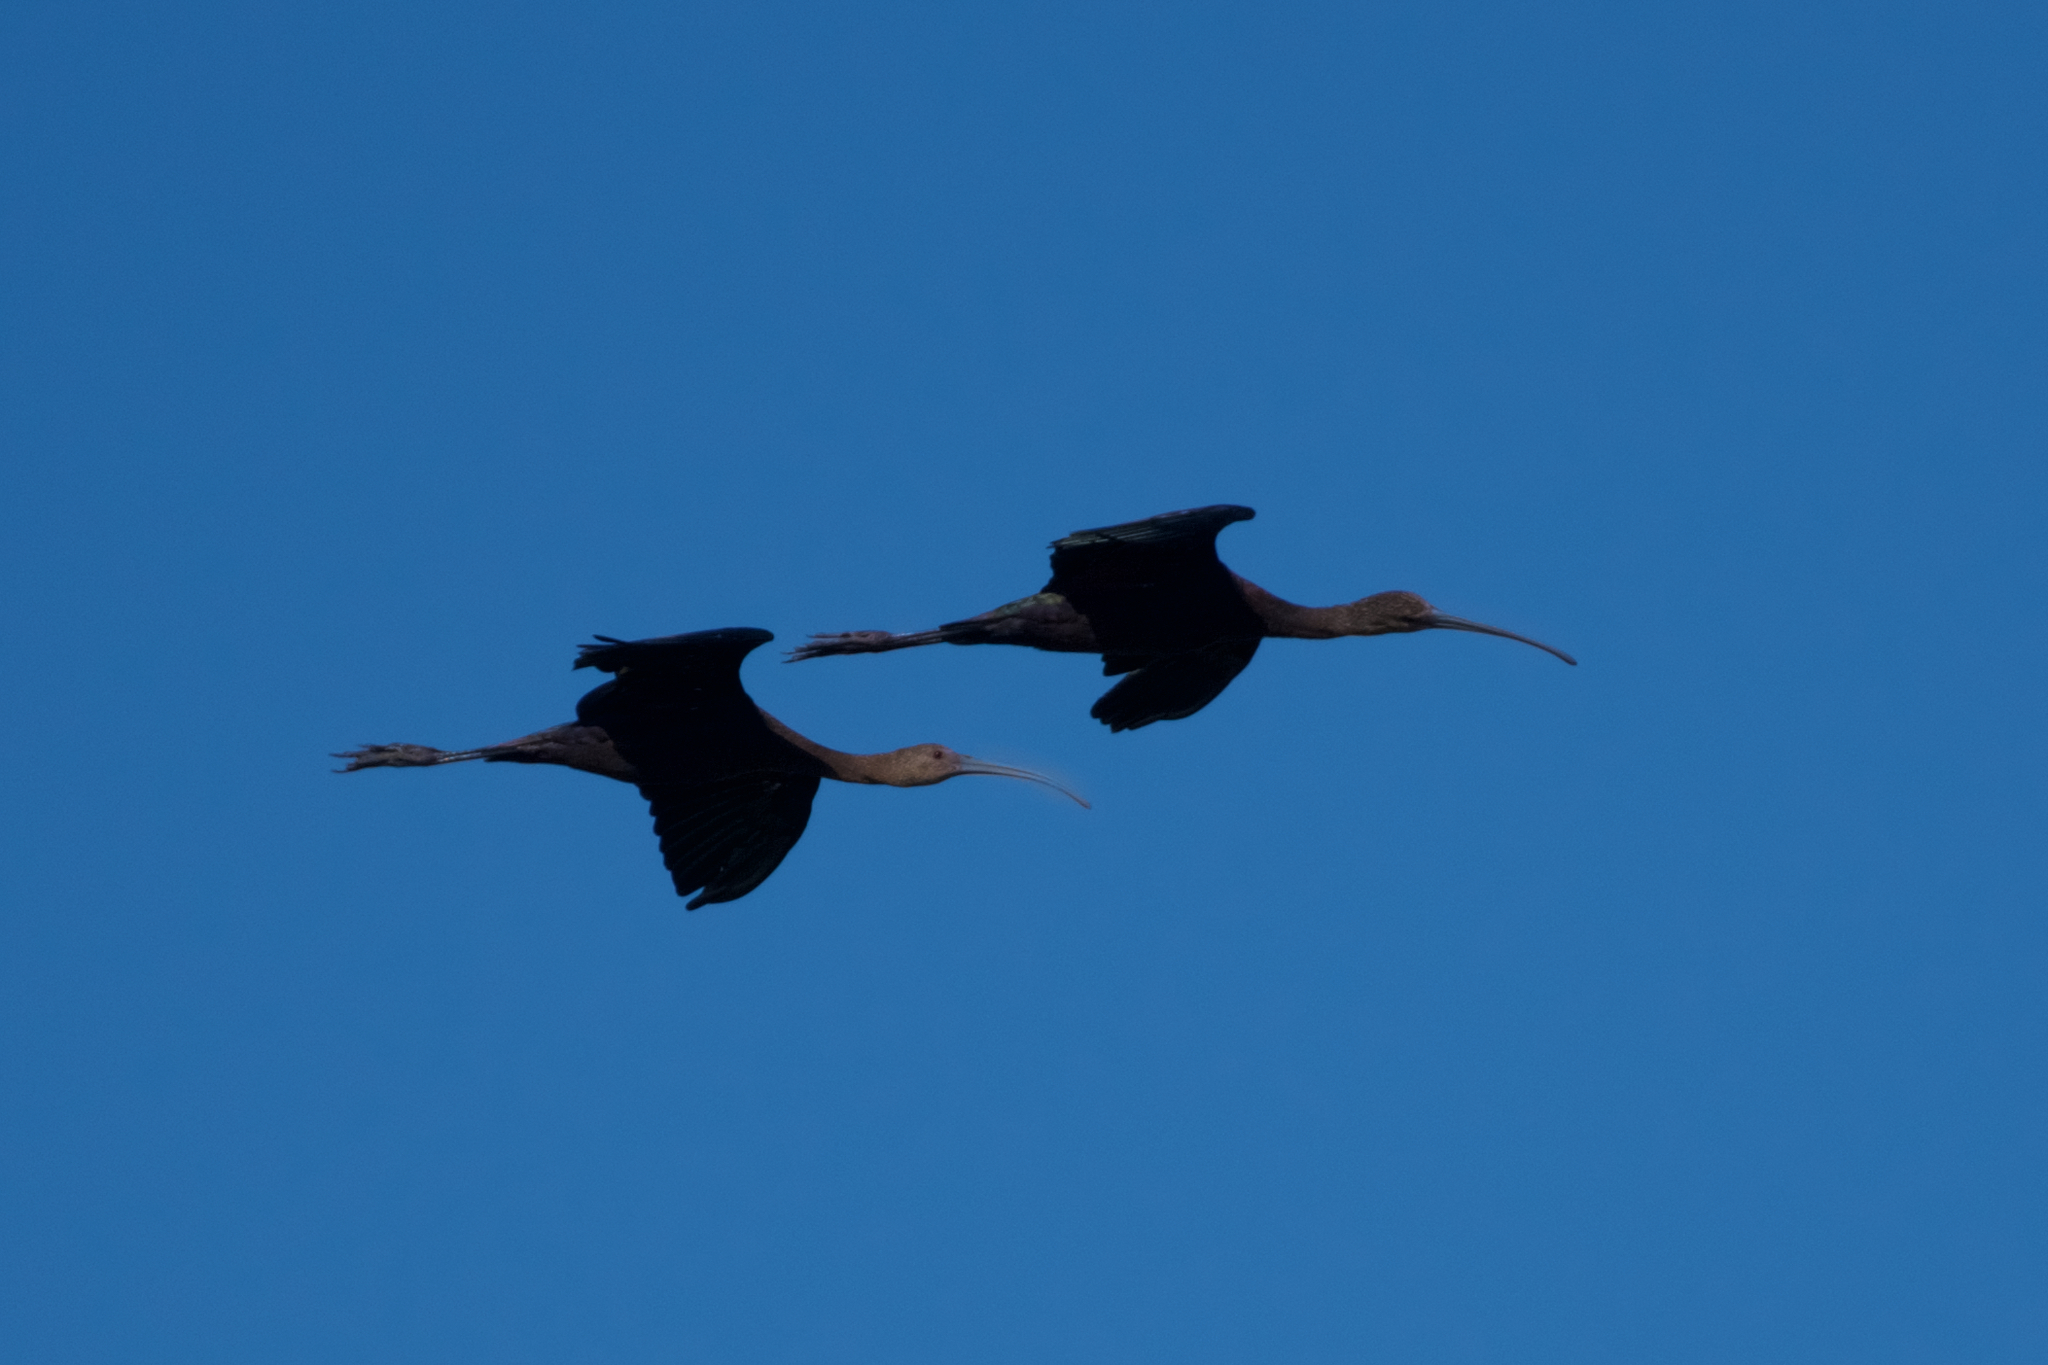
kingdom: Animalia
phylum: Chordata
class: Aves
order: Pelecaniformes
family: Threskiornithidae
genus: Plegadis
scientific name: Plegadis chihi
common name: White-faced ibis
